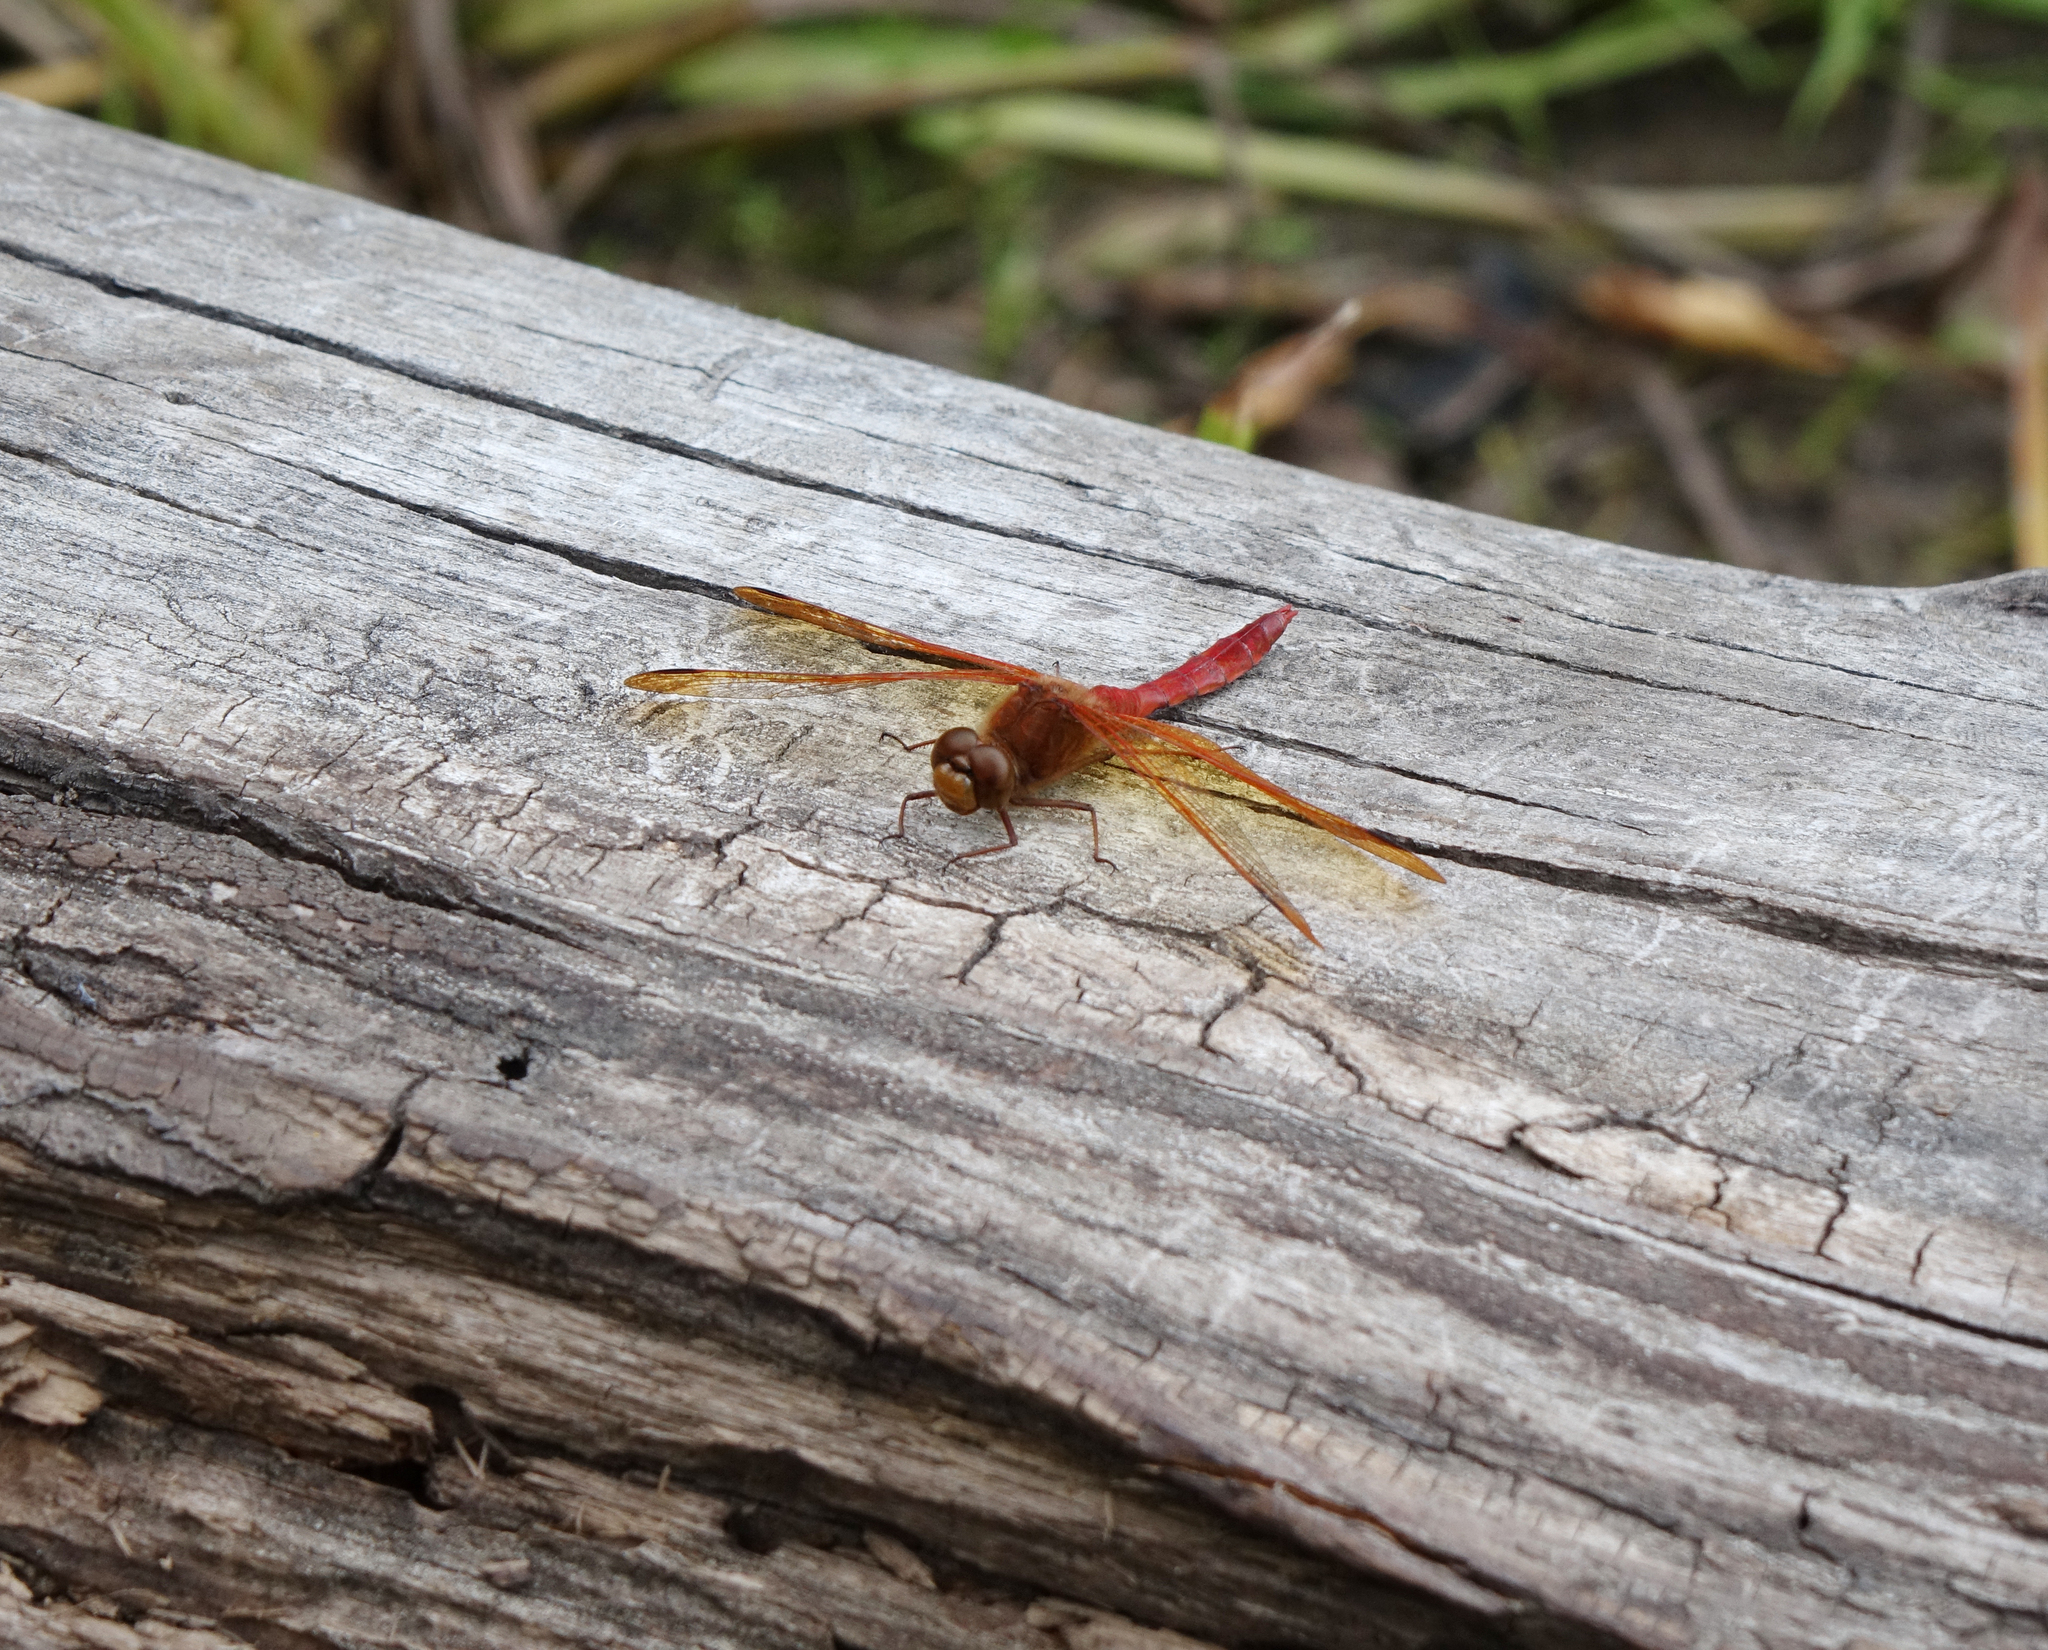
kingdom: Animalia
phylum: Arthropoda
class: Insecta
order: Odonata
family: Libellulidae
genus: Sympetrum
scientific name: Sympetrum croceolum
